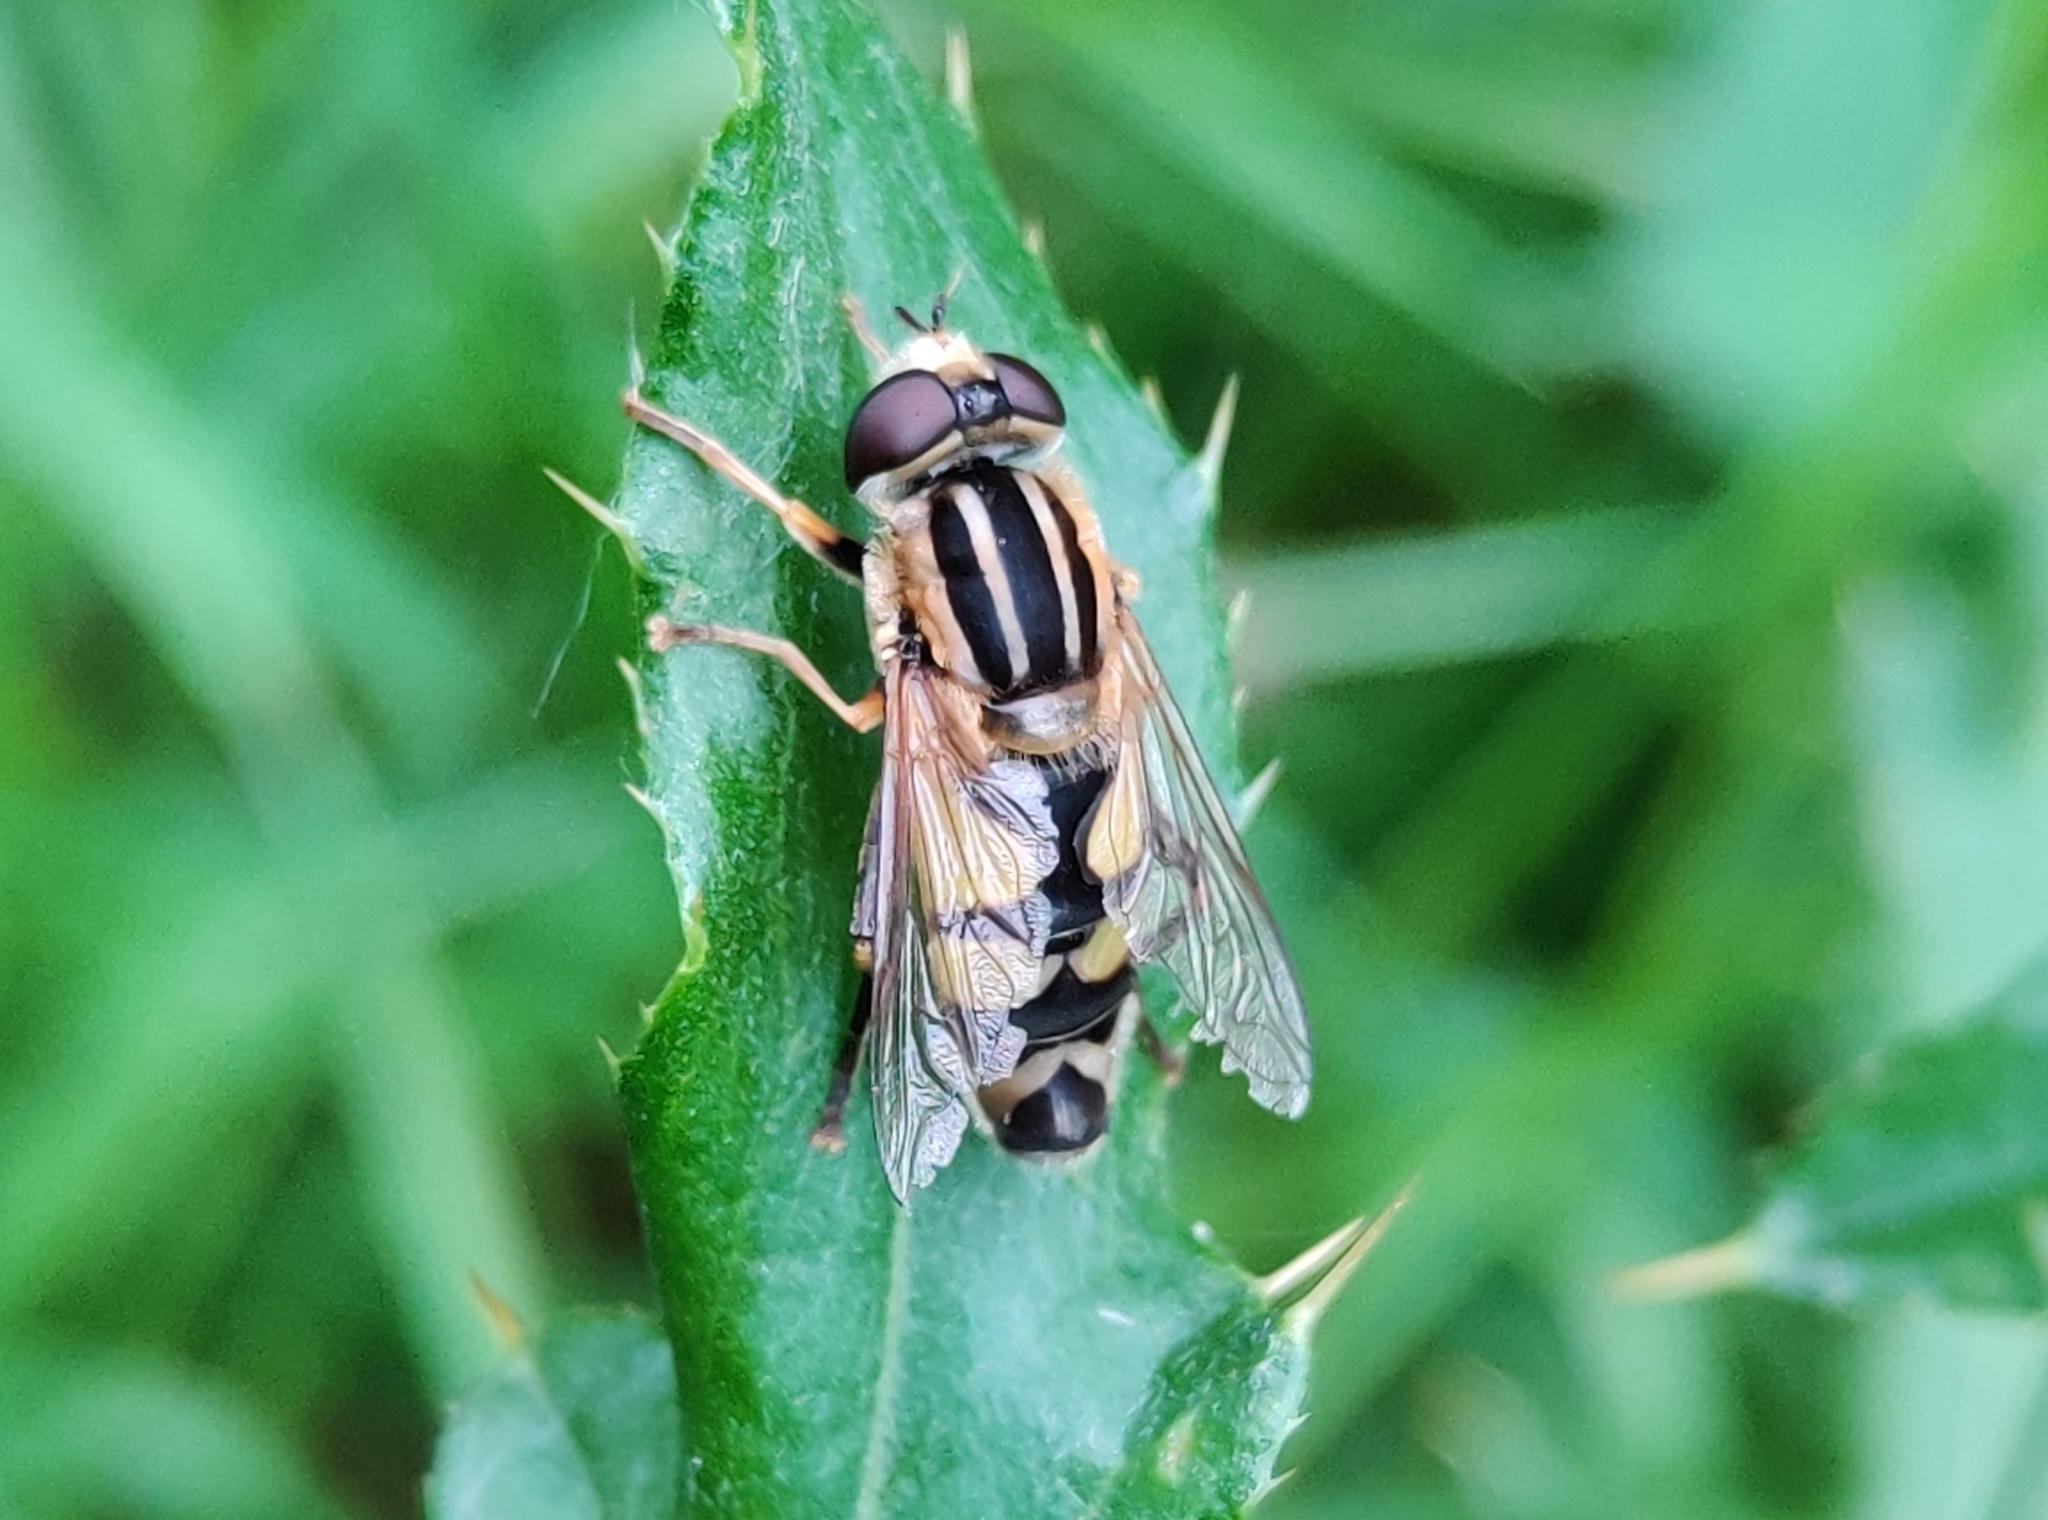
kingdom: Animalia
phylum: Arthropoda
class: Insecta
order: Diptera
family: Syrphidae
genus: Helophilus
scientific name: Helophilus trivittatus
